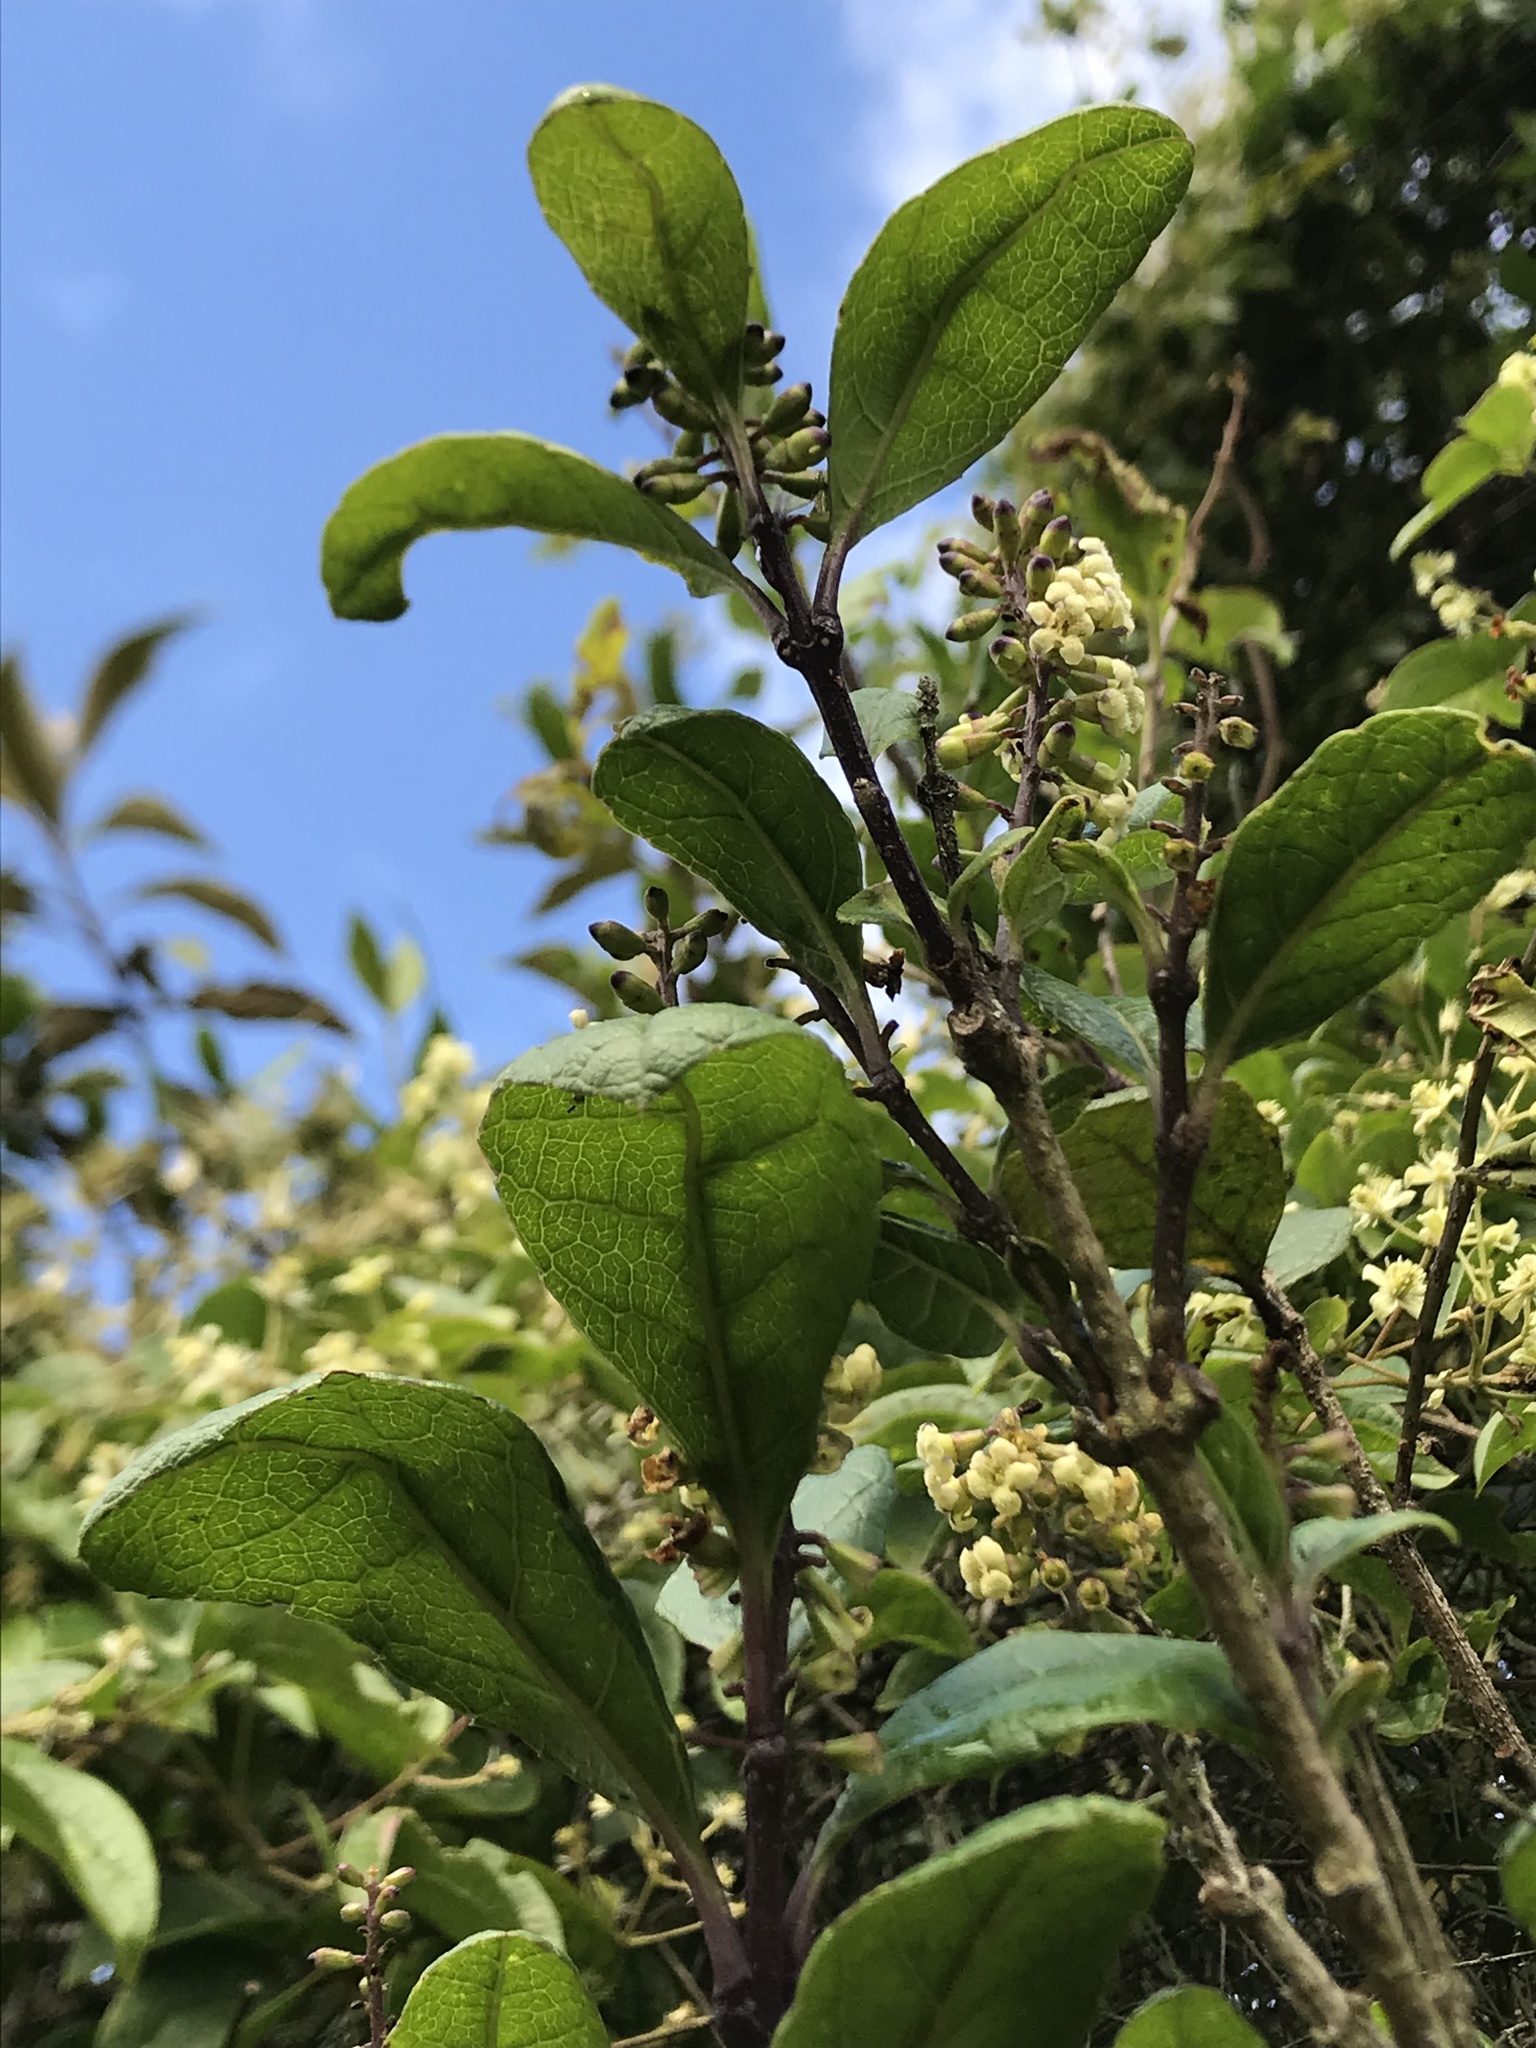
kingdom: Plantae
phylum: Tracheophyta
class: Magnoliopsida
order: Lamiales
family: Verbenaceae
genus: Citharexylum
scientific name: Citharexylum reticulatum
